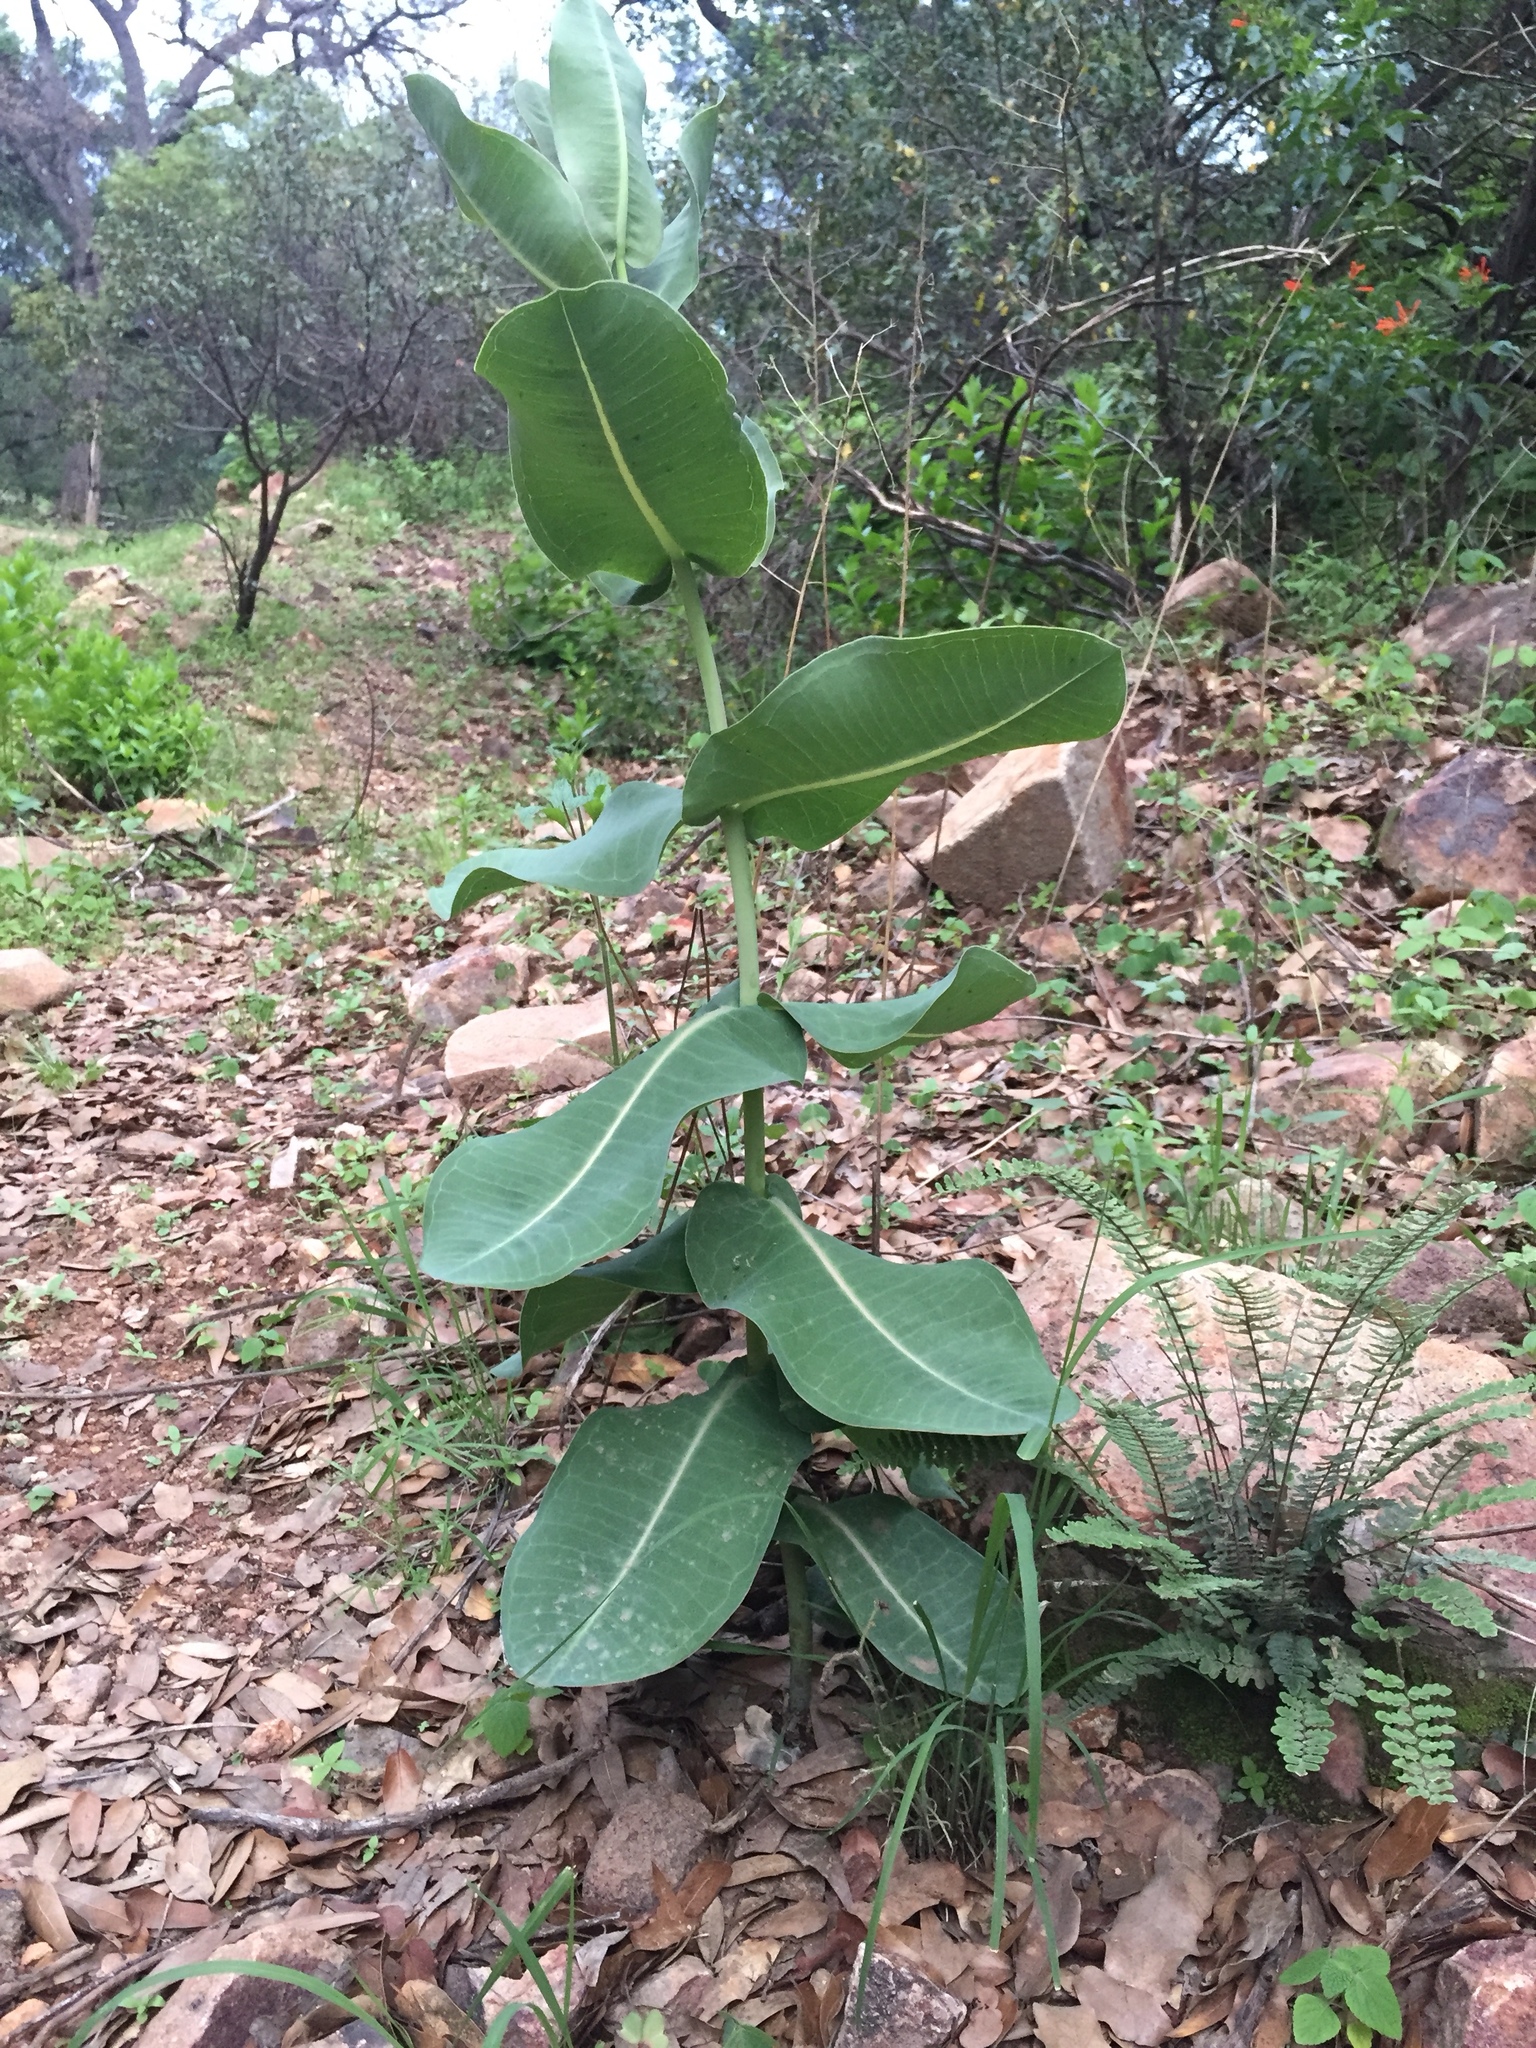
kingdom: Plantae
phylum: Tracheophyta
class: Magnoliopsida
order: Gentianales
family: Apocynaceae
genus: Asclepias
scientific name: Asclepias elata
